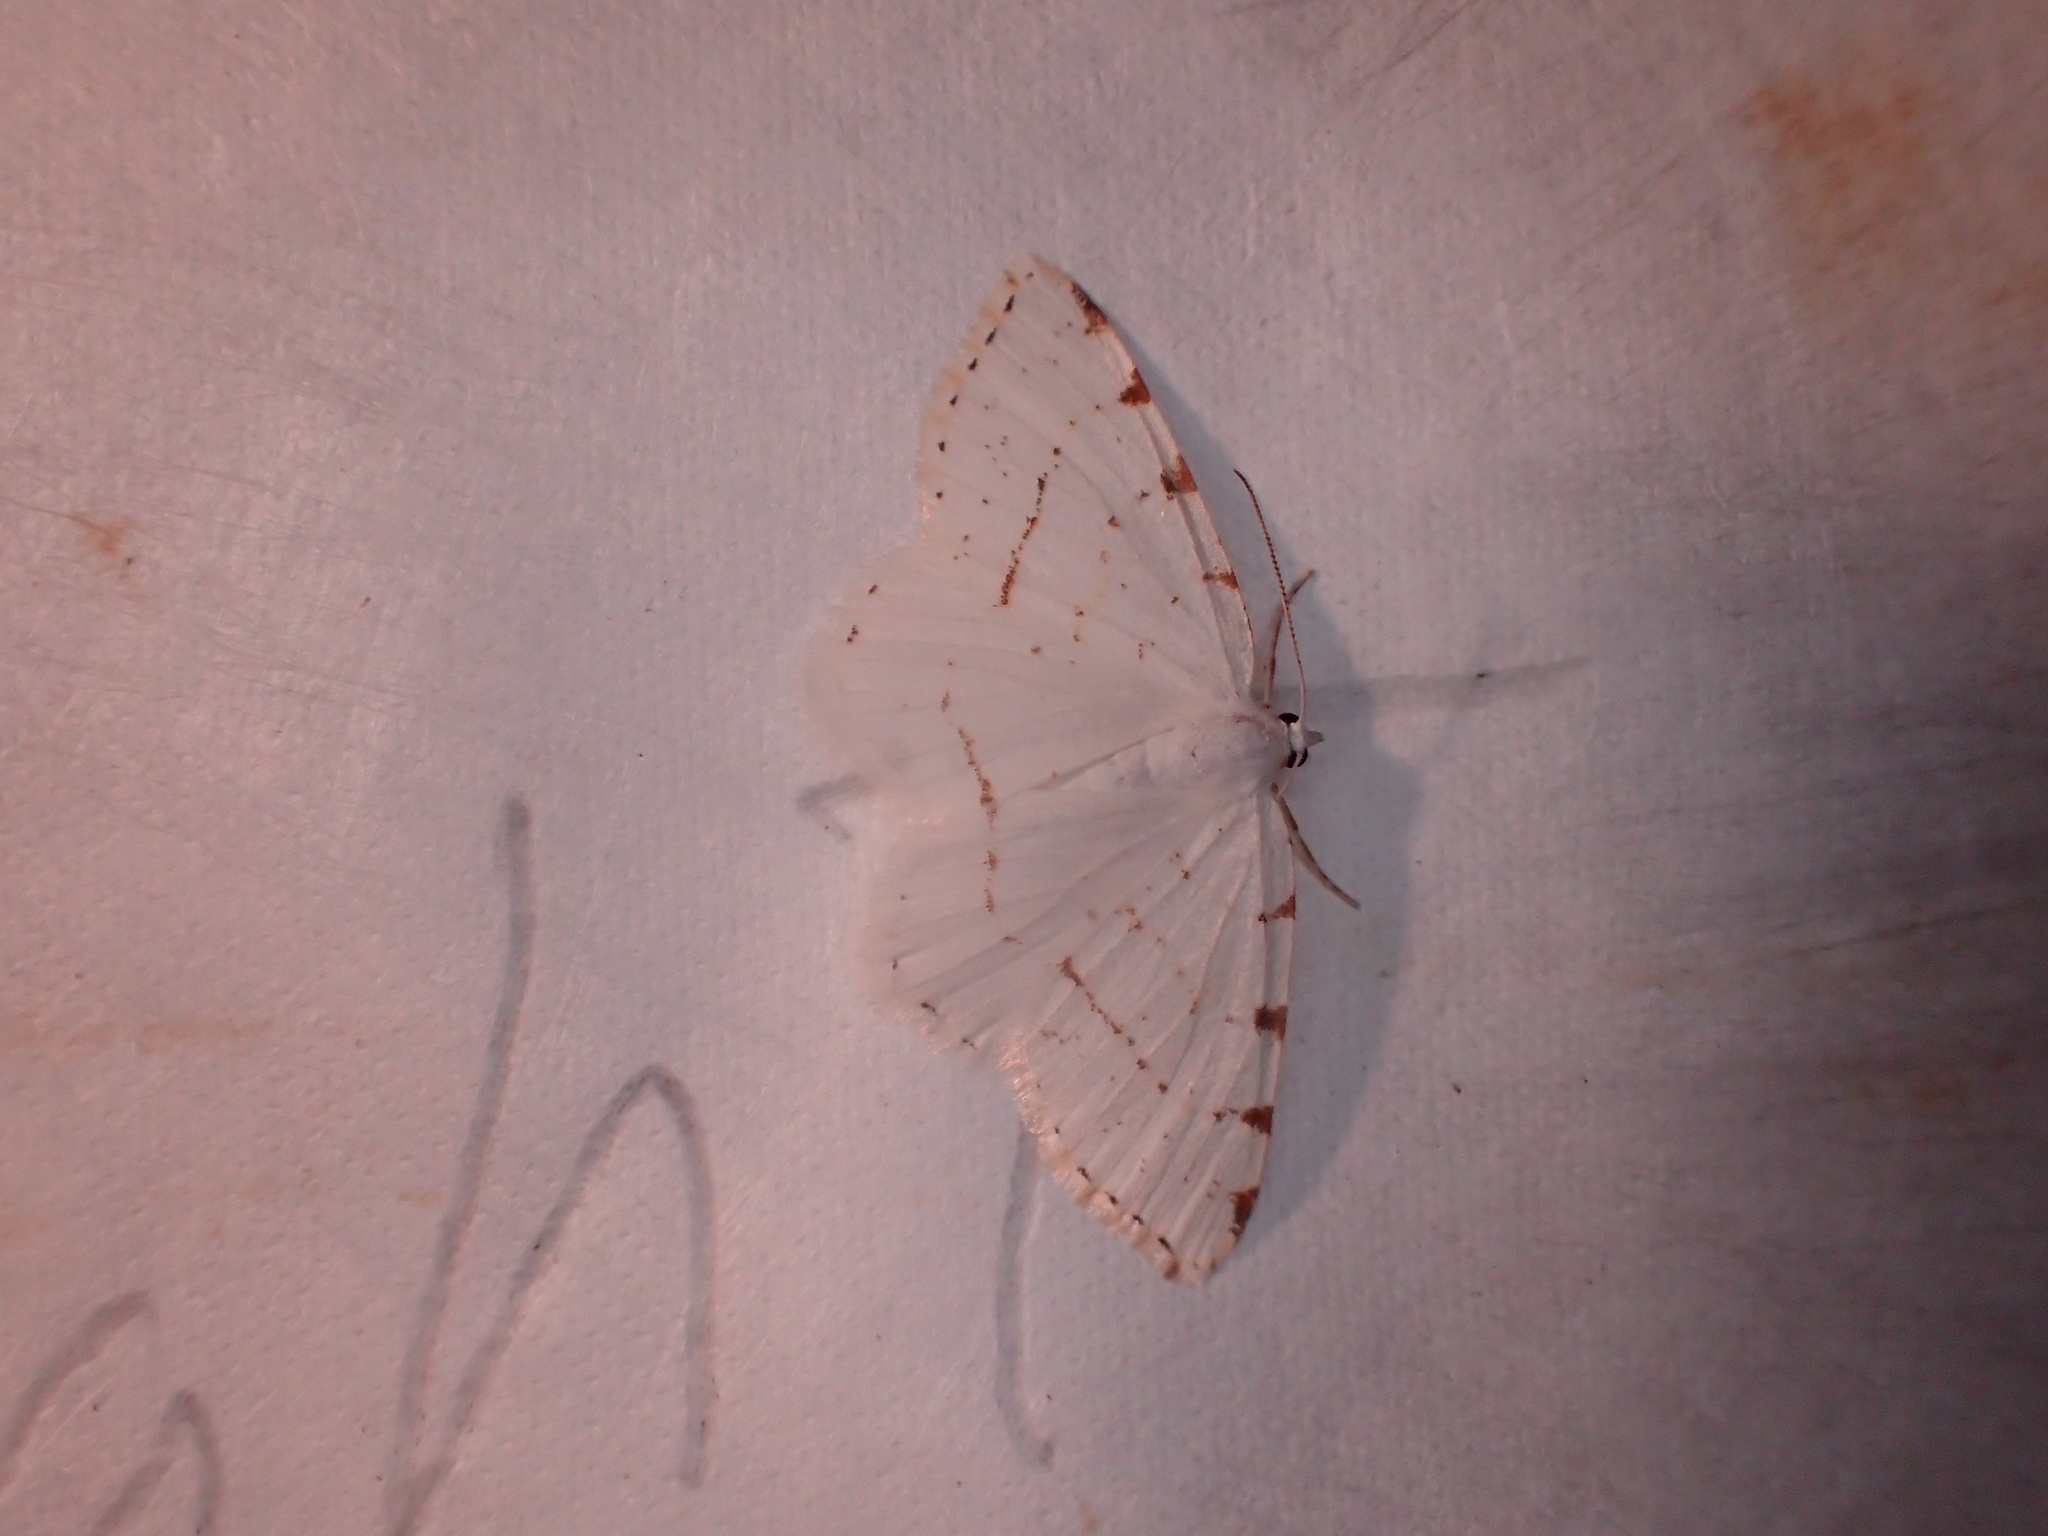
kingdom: Animalia
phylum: Arthropoda
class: Insecta
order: Lepidoptera
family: Geometridae
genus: Macaria
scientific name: Macaria pustularia
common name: Lesser maple spanworm moth
